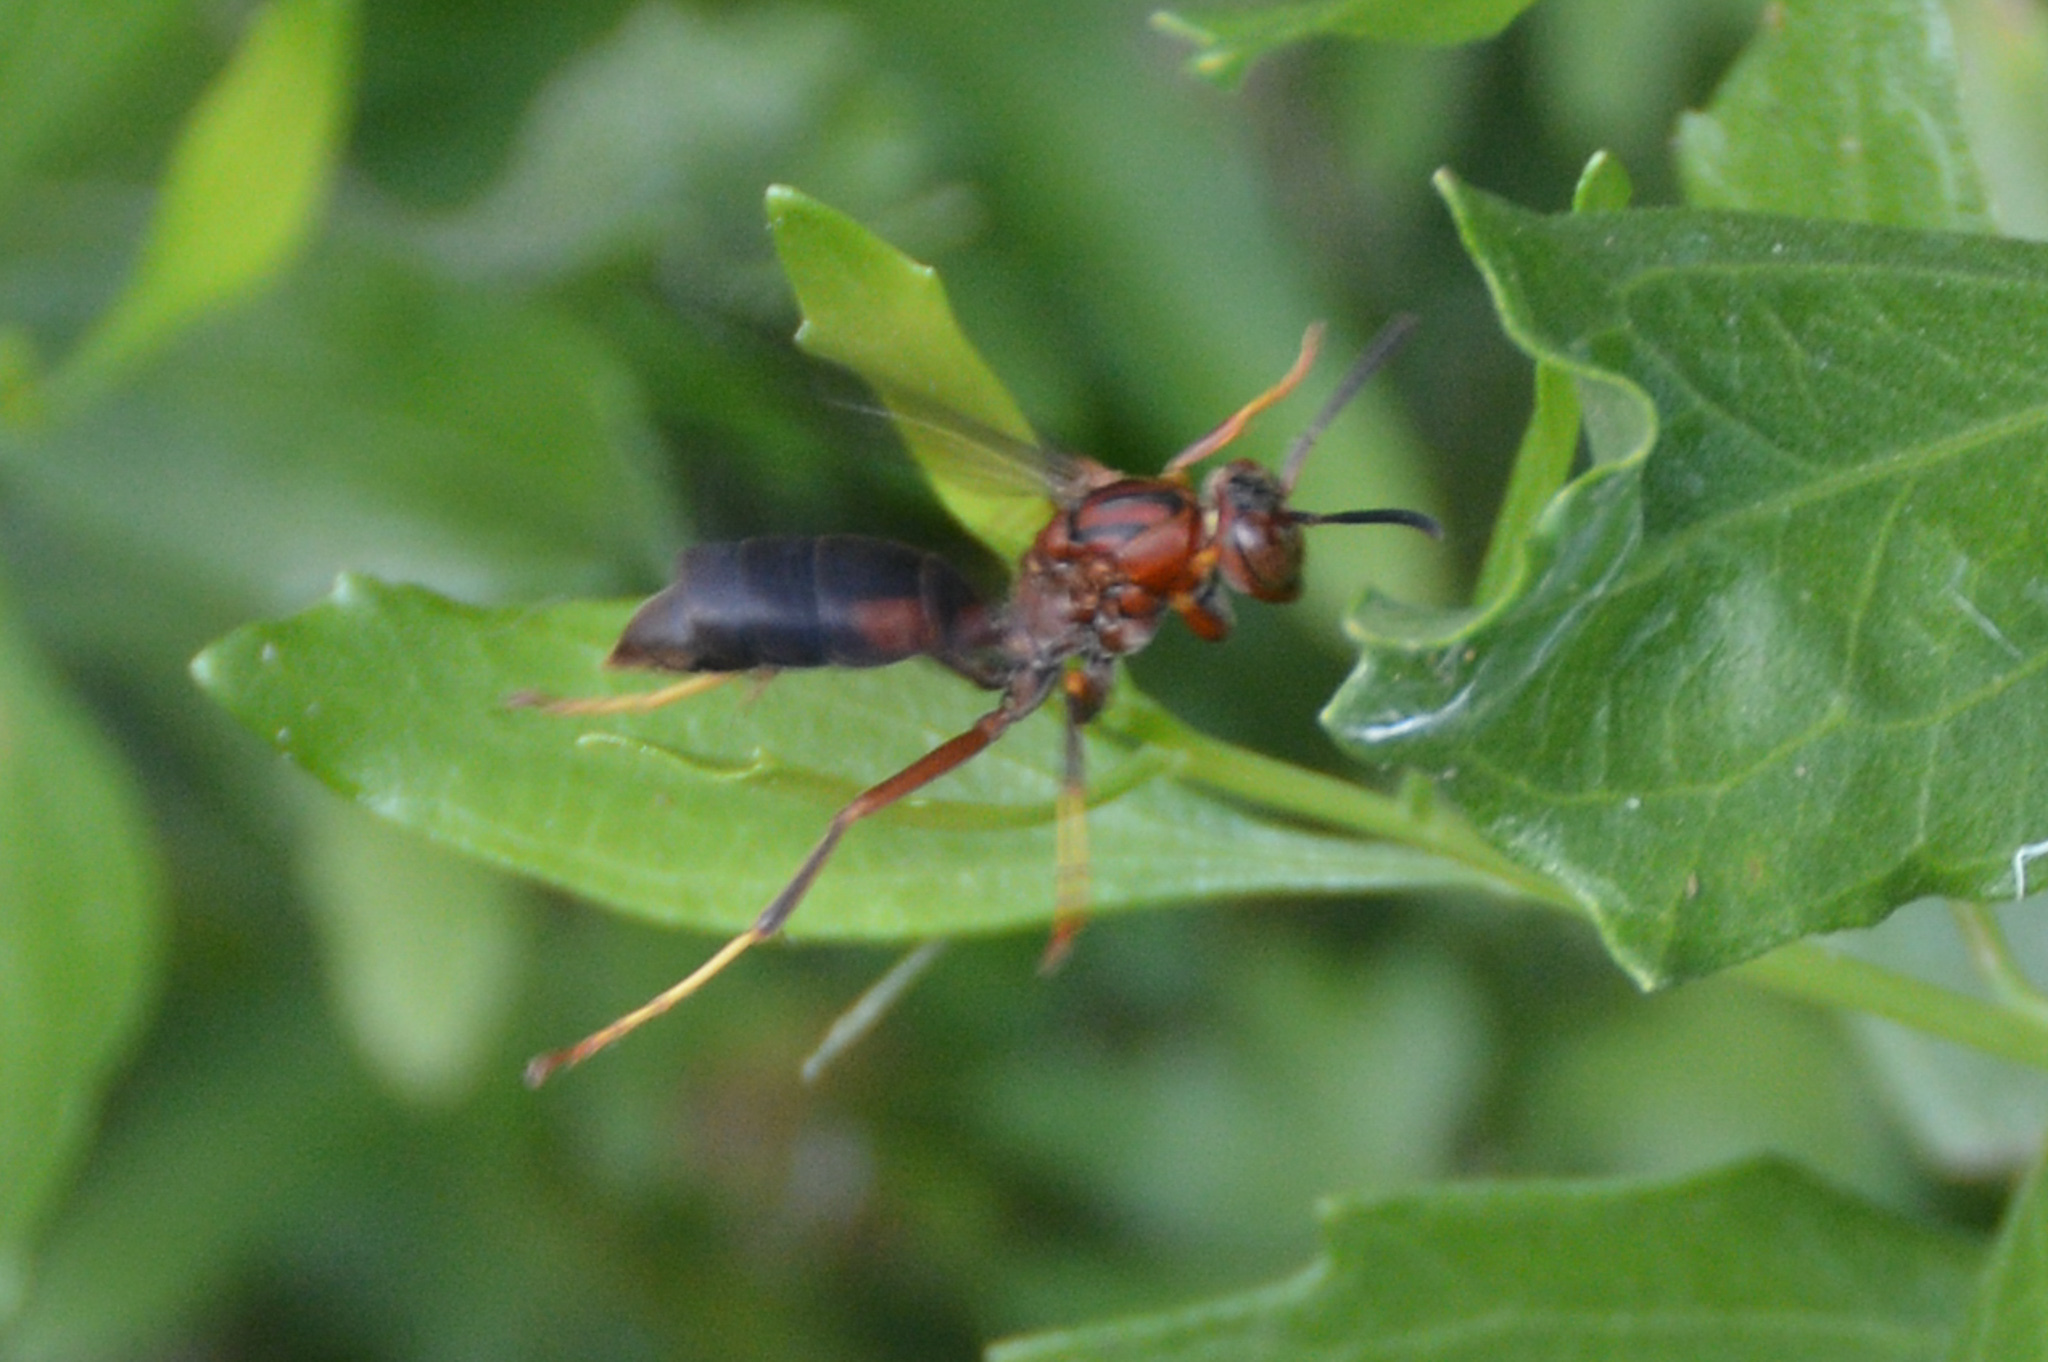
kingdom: Animalia
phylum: Arthropoda
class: Insecta
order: Hymenoptera
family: Eumenidae
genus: Polistes
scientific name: Polistes metricus
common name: Metric paper wasp
